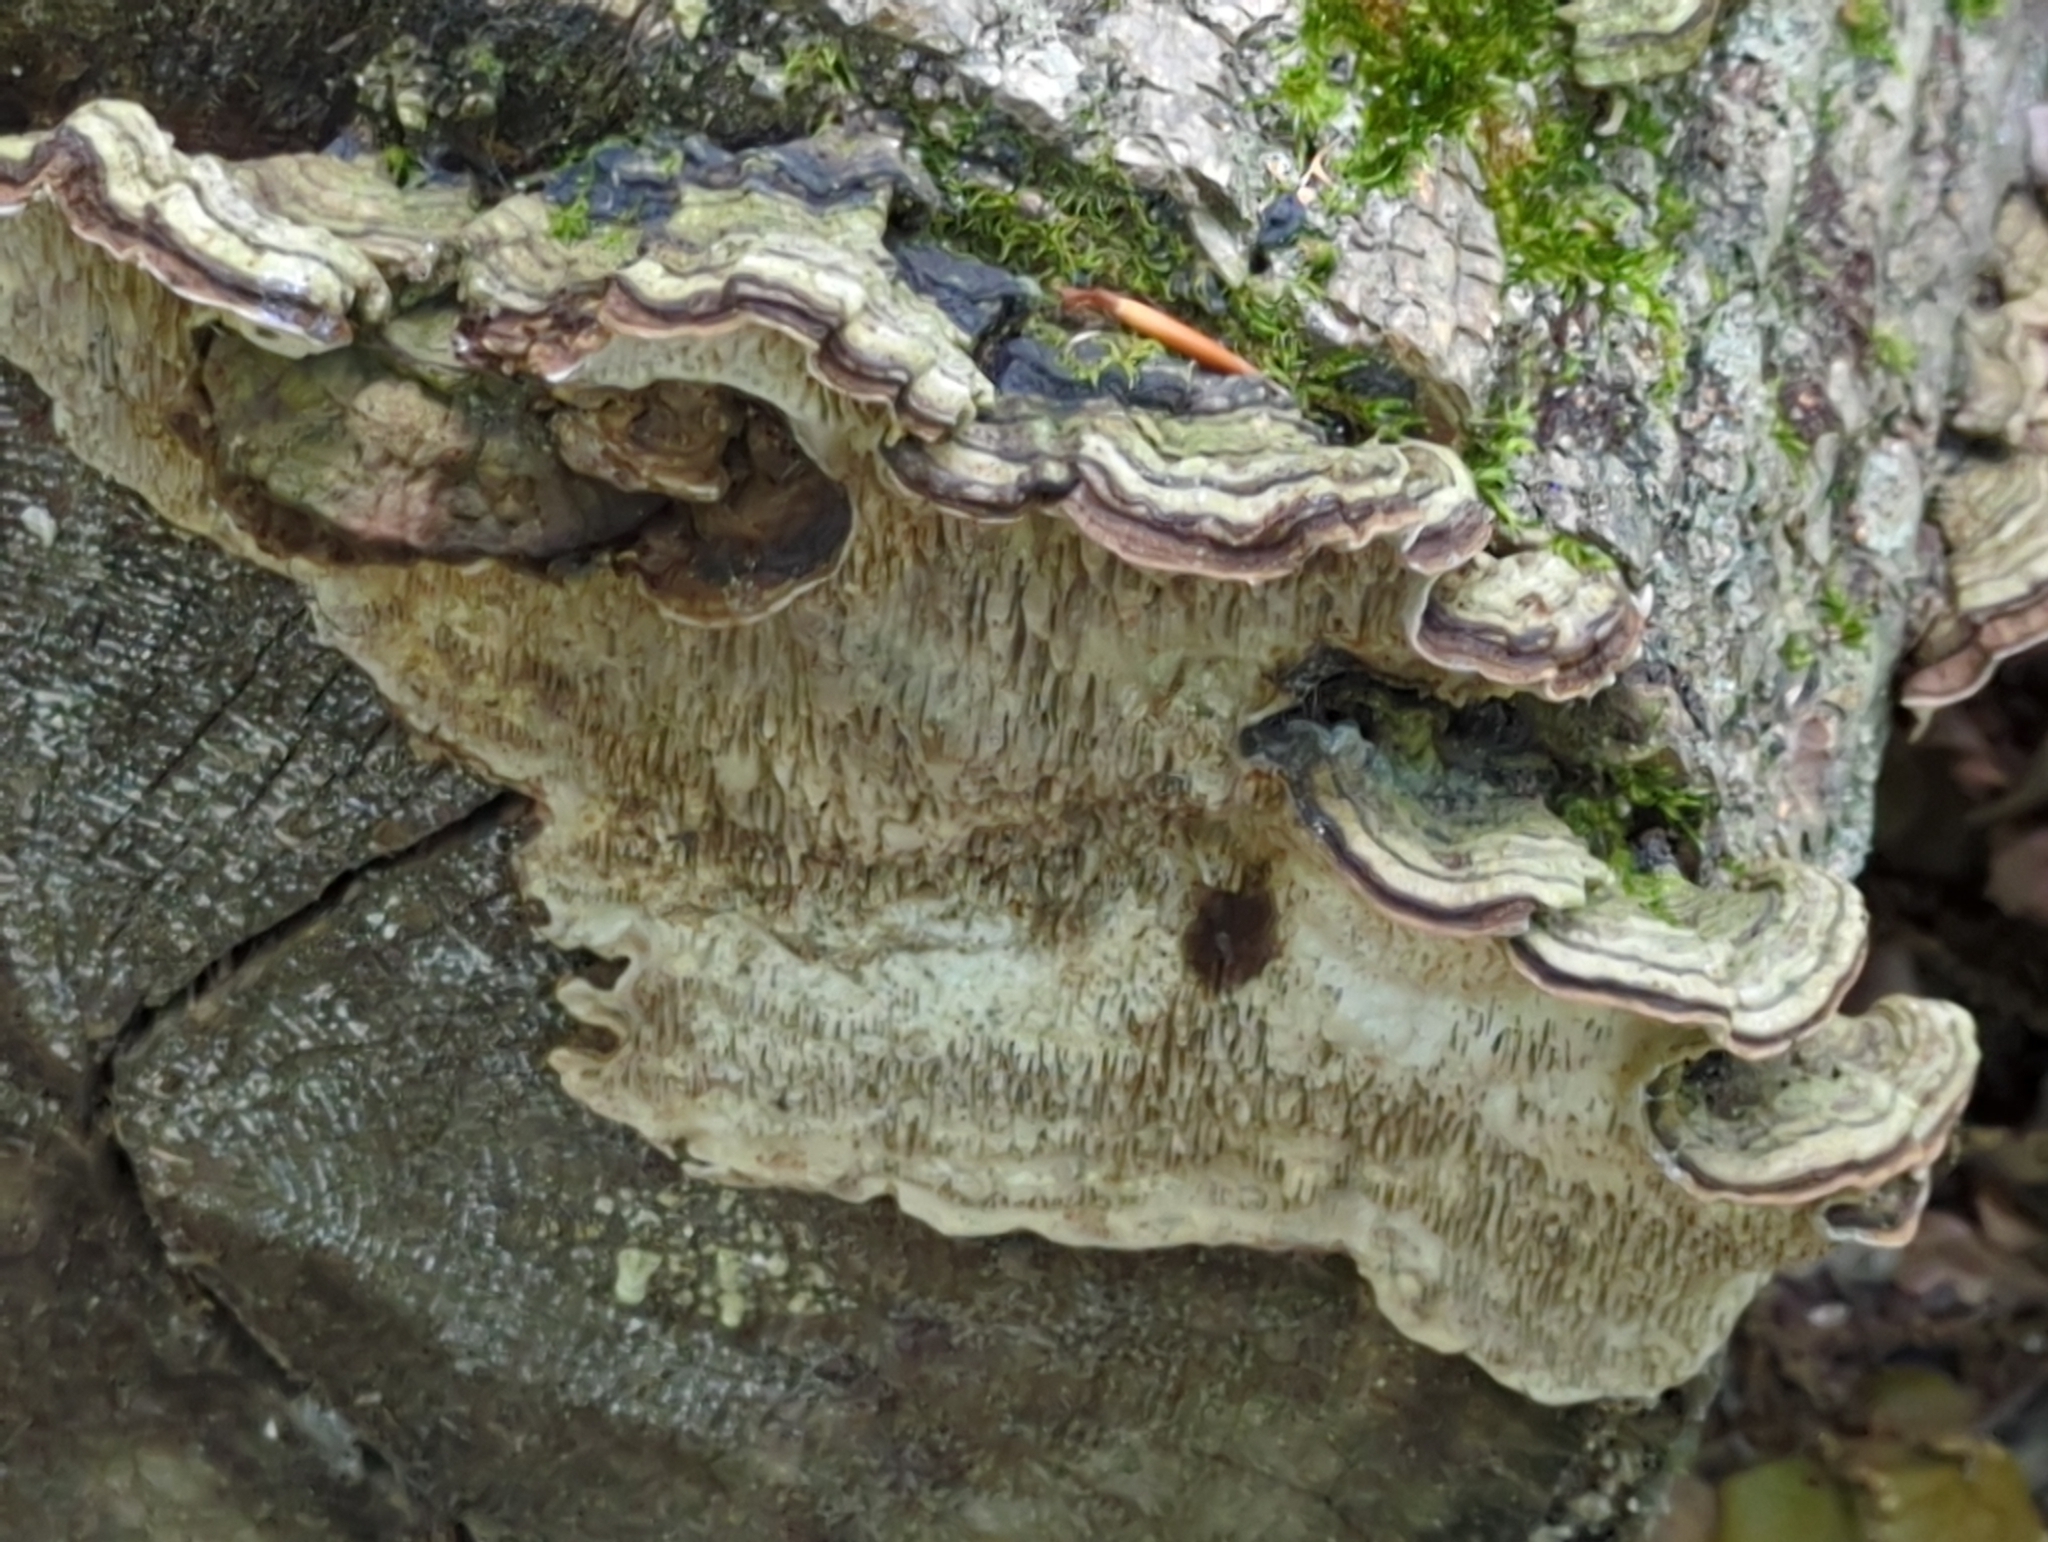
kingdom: Fungi
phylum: Basidiomycota
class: Agaricomycetes
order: Polyporales
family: Polyporaceae
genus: Podofomes
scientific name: Podofomes mollis
